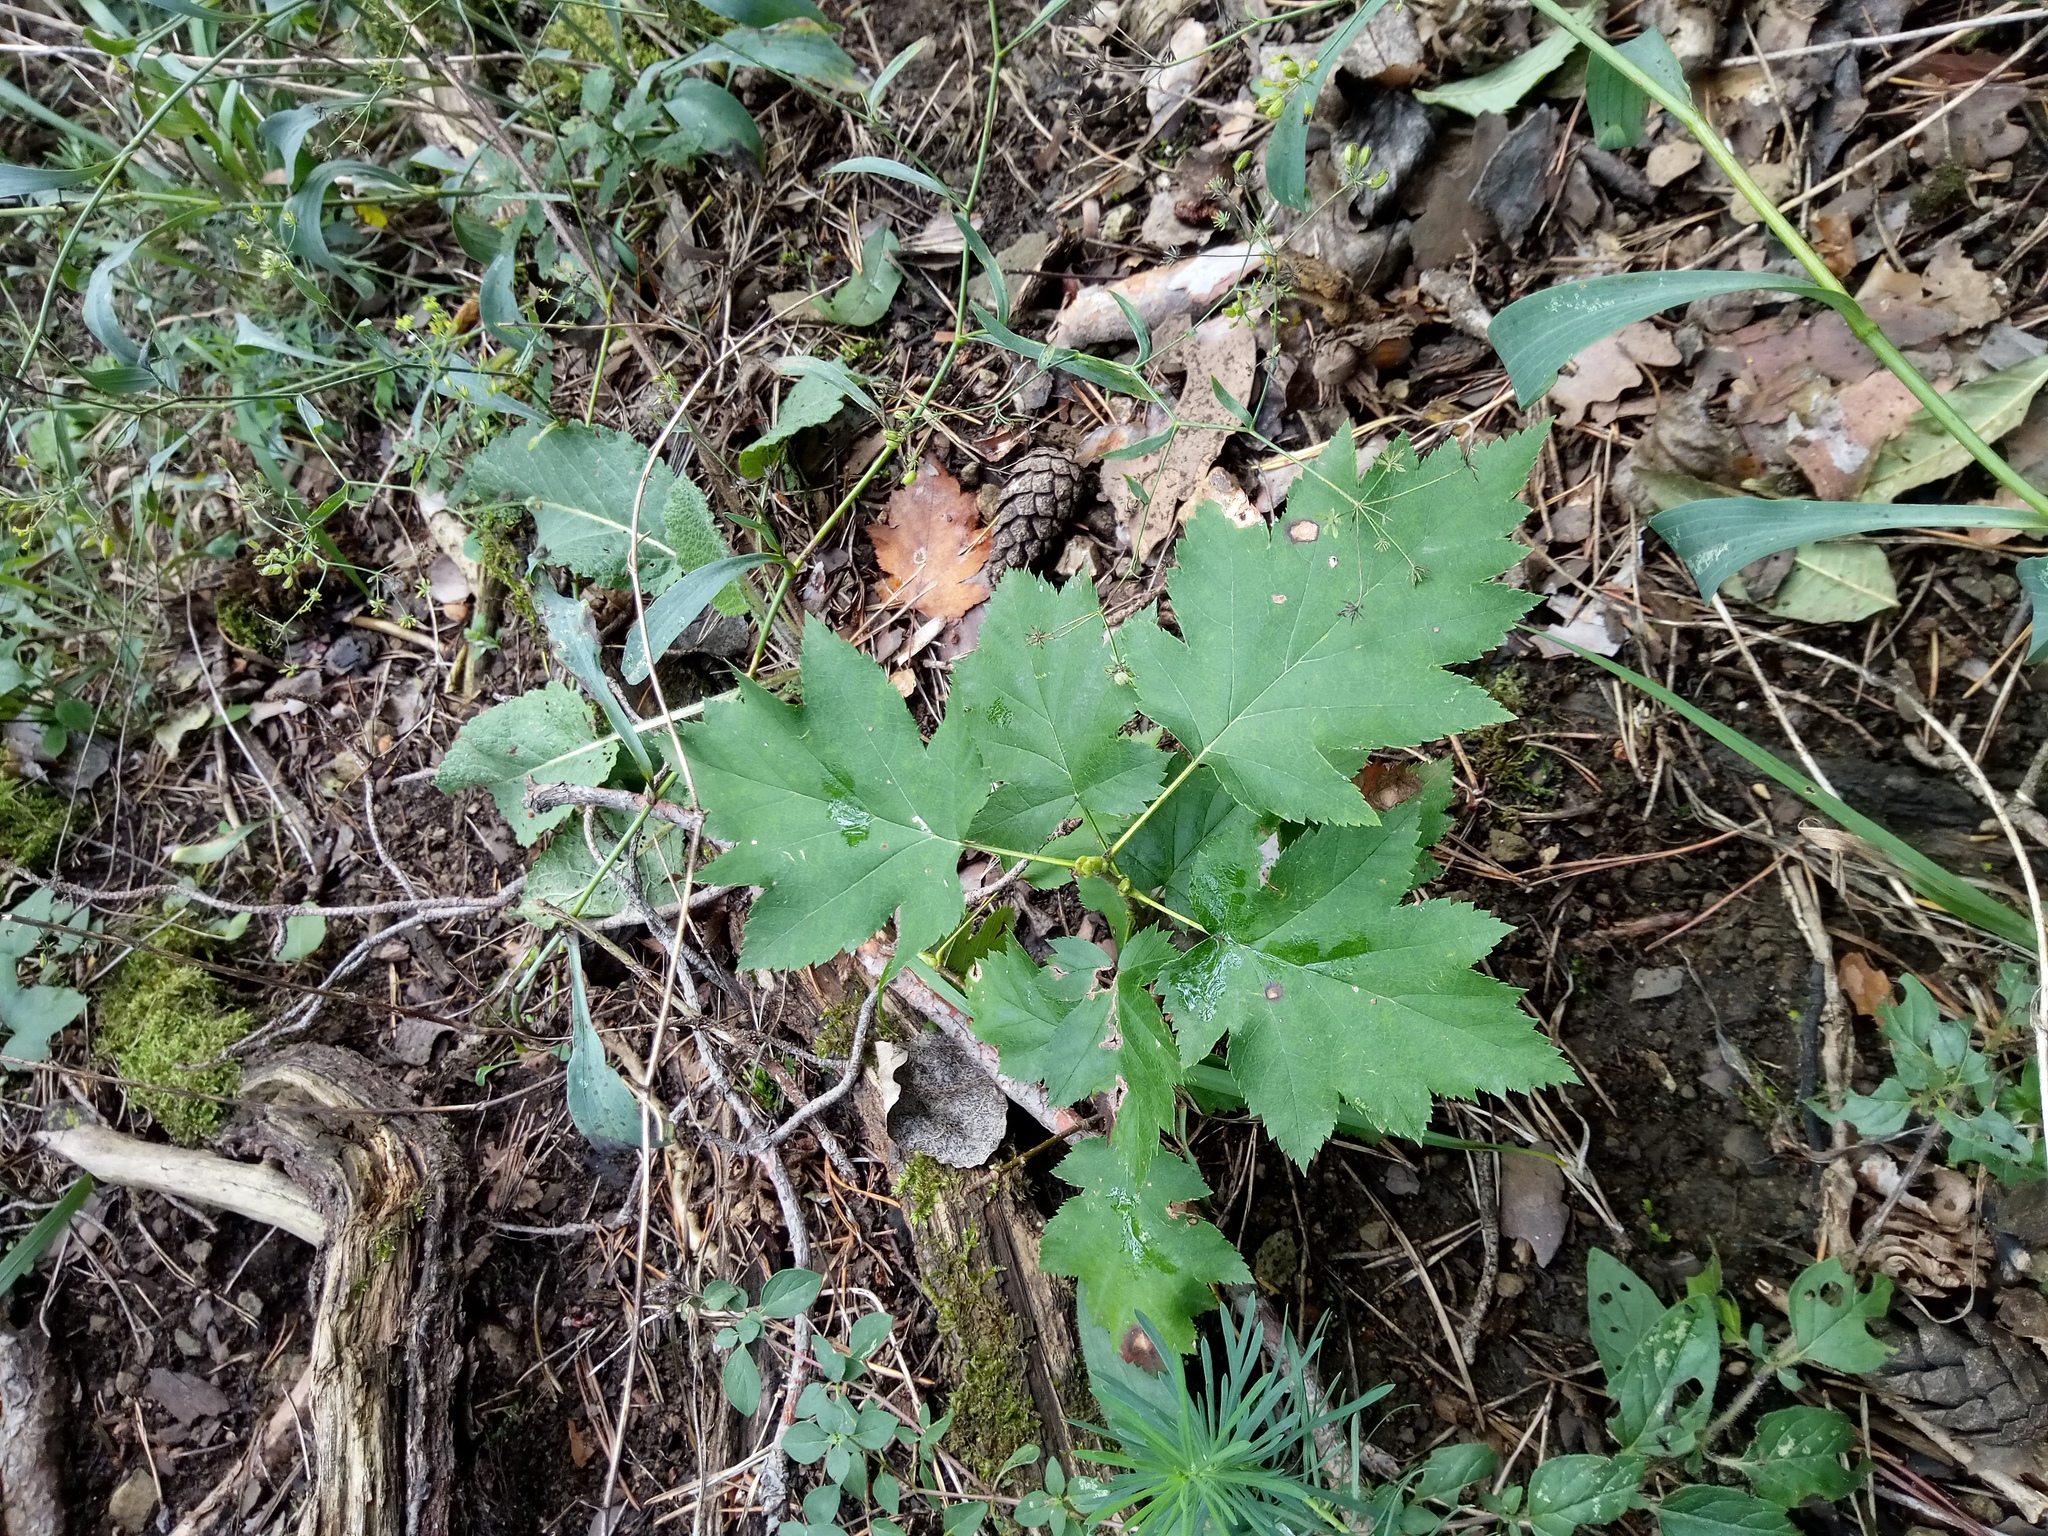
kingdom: Plantae
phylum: Tracheophyta
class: Magnoliopsida
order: Rosales
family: Rosaceae
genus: Torminalis
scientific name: Torminalis glaberrima
